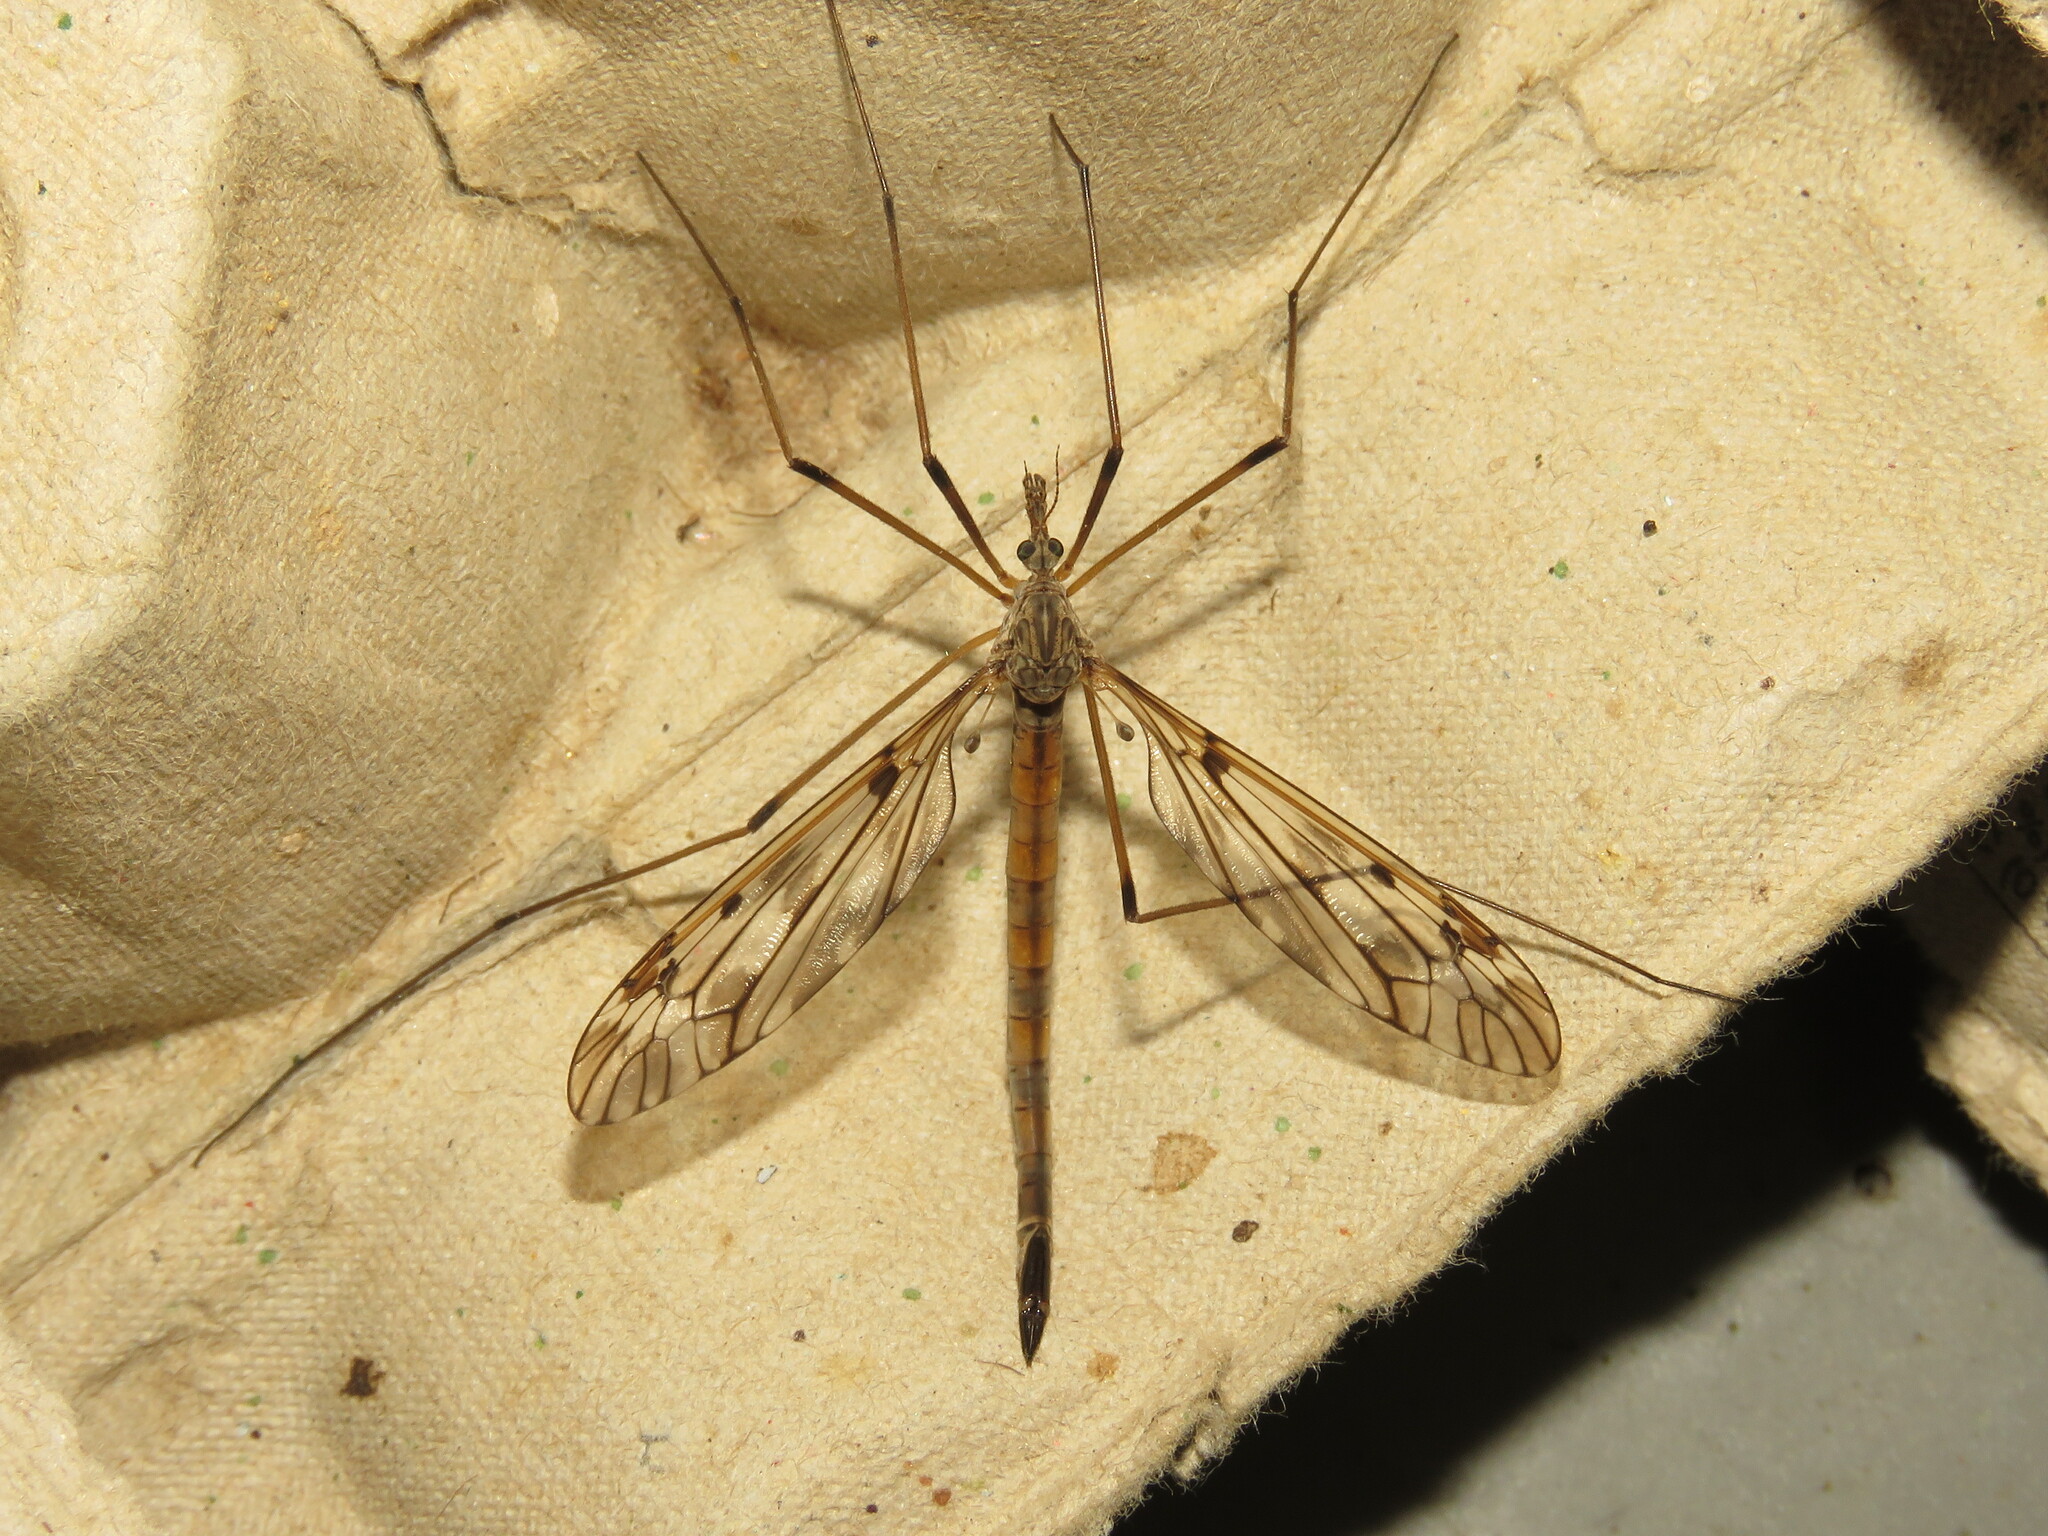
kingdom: Animalia
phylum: Arthropoda
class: Insecta
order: Diptera
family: Tipulidae
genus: Tipula
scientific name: Tipula longiventris
